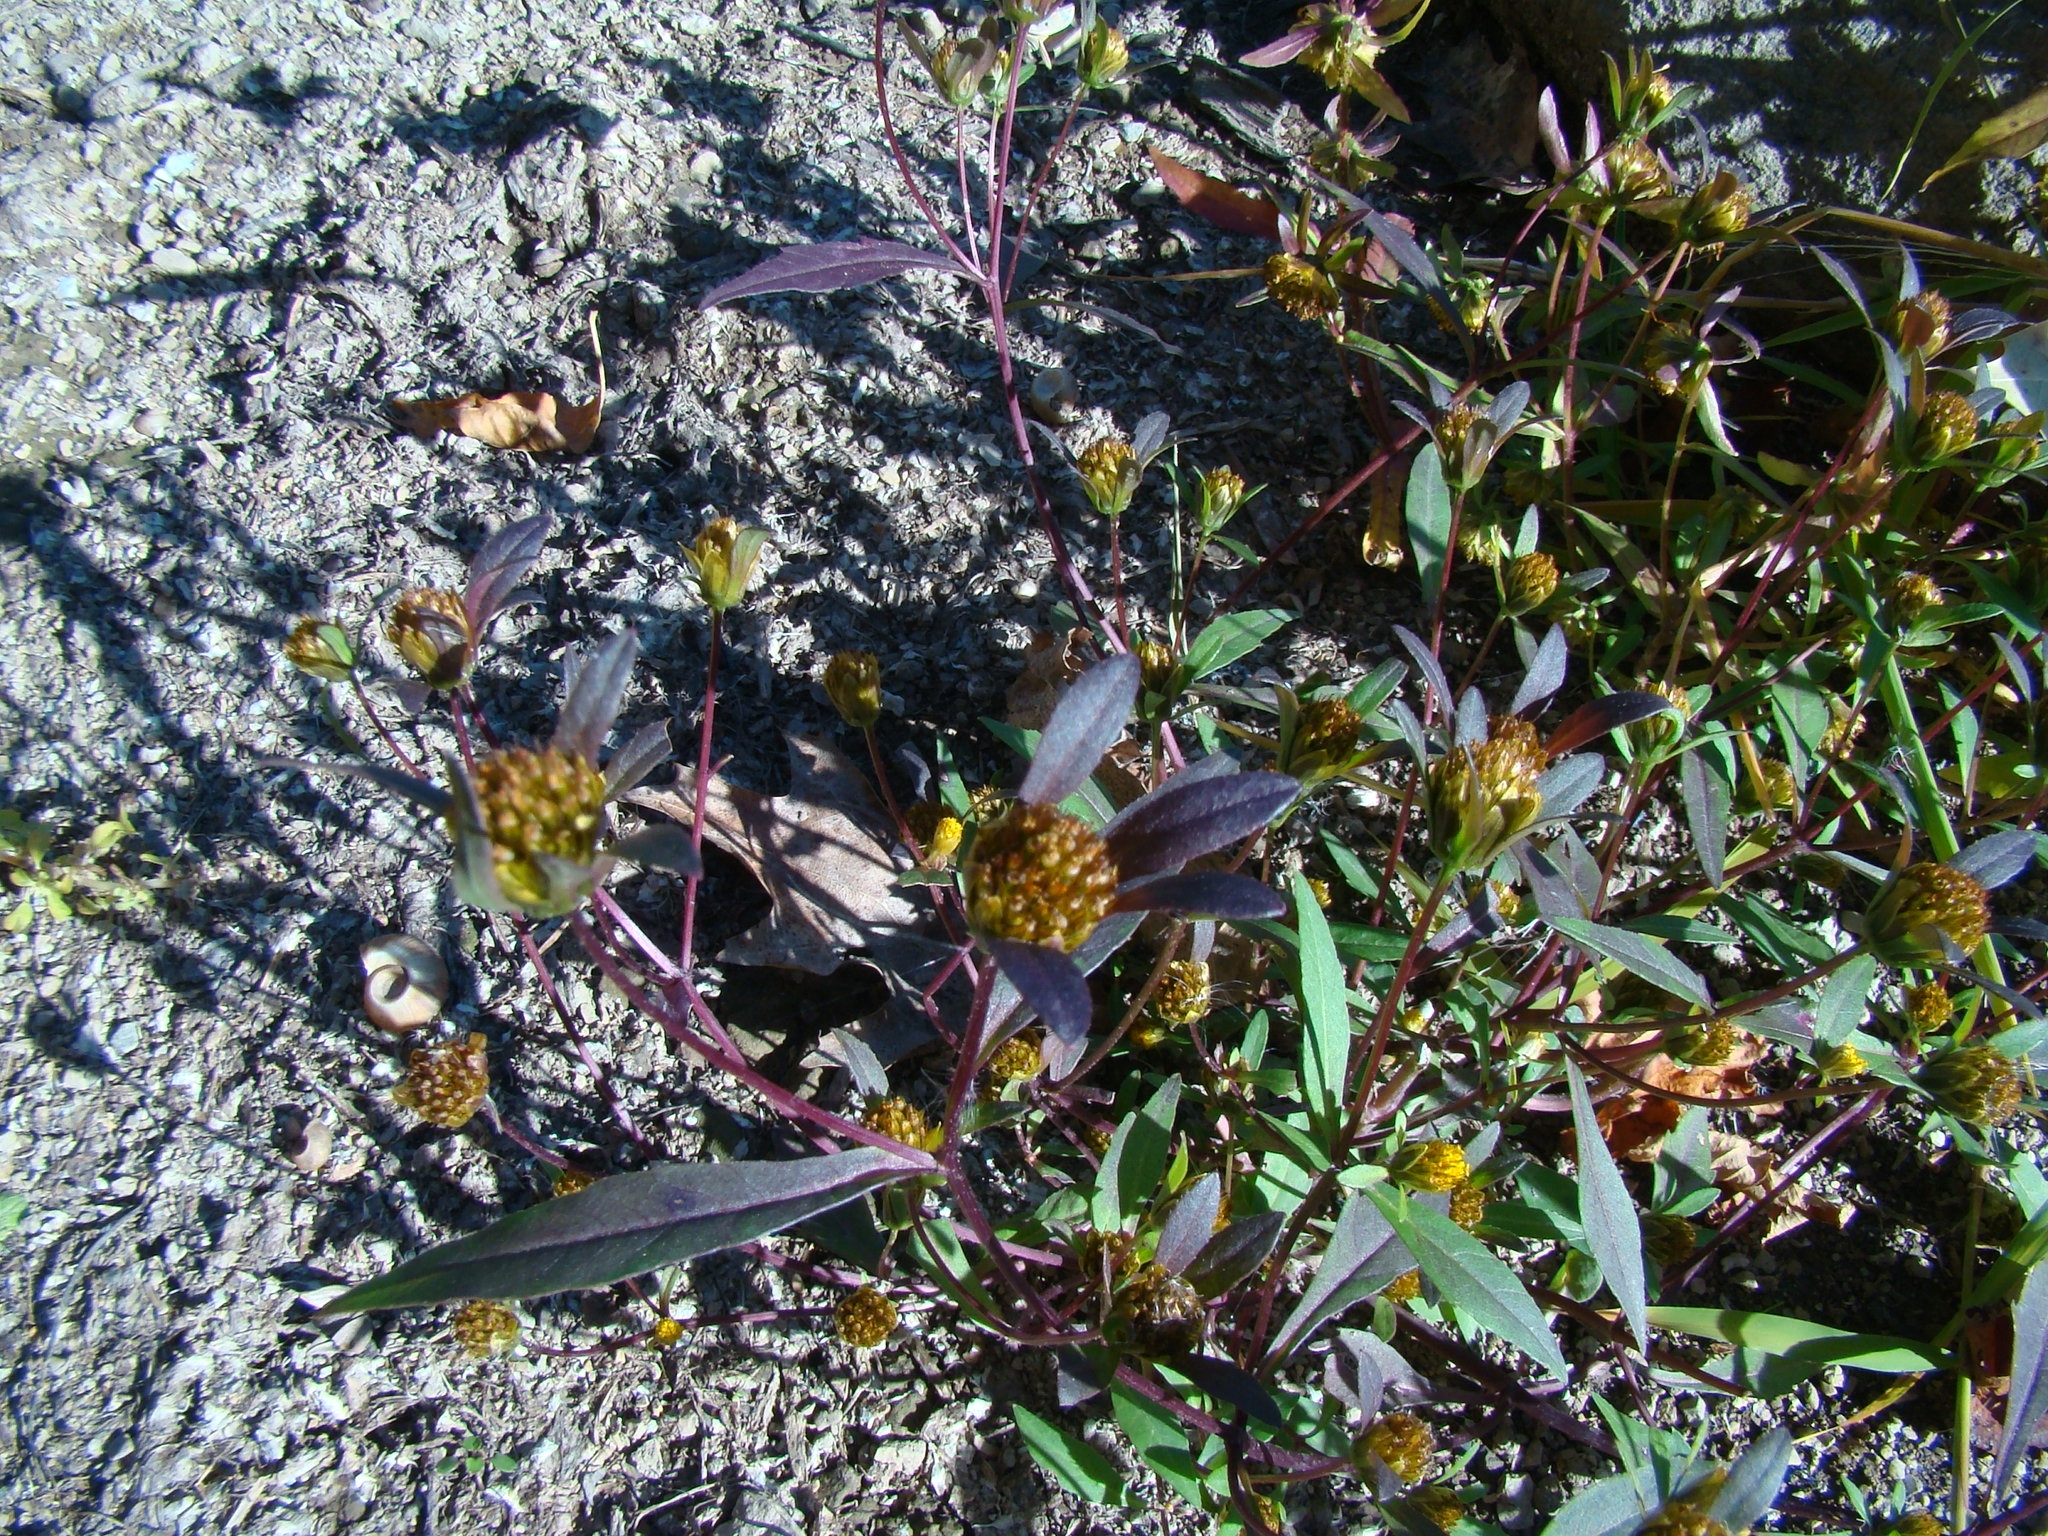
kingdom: Plantae
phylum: Tracheophyta
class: Magnoliopsida
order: Asterales
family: Asteraceae
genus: Bidens
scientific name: Bidens connata
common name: London bur-marigold
